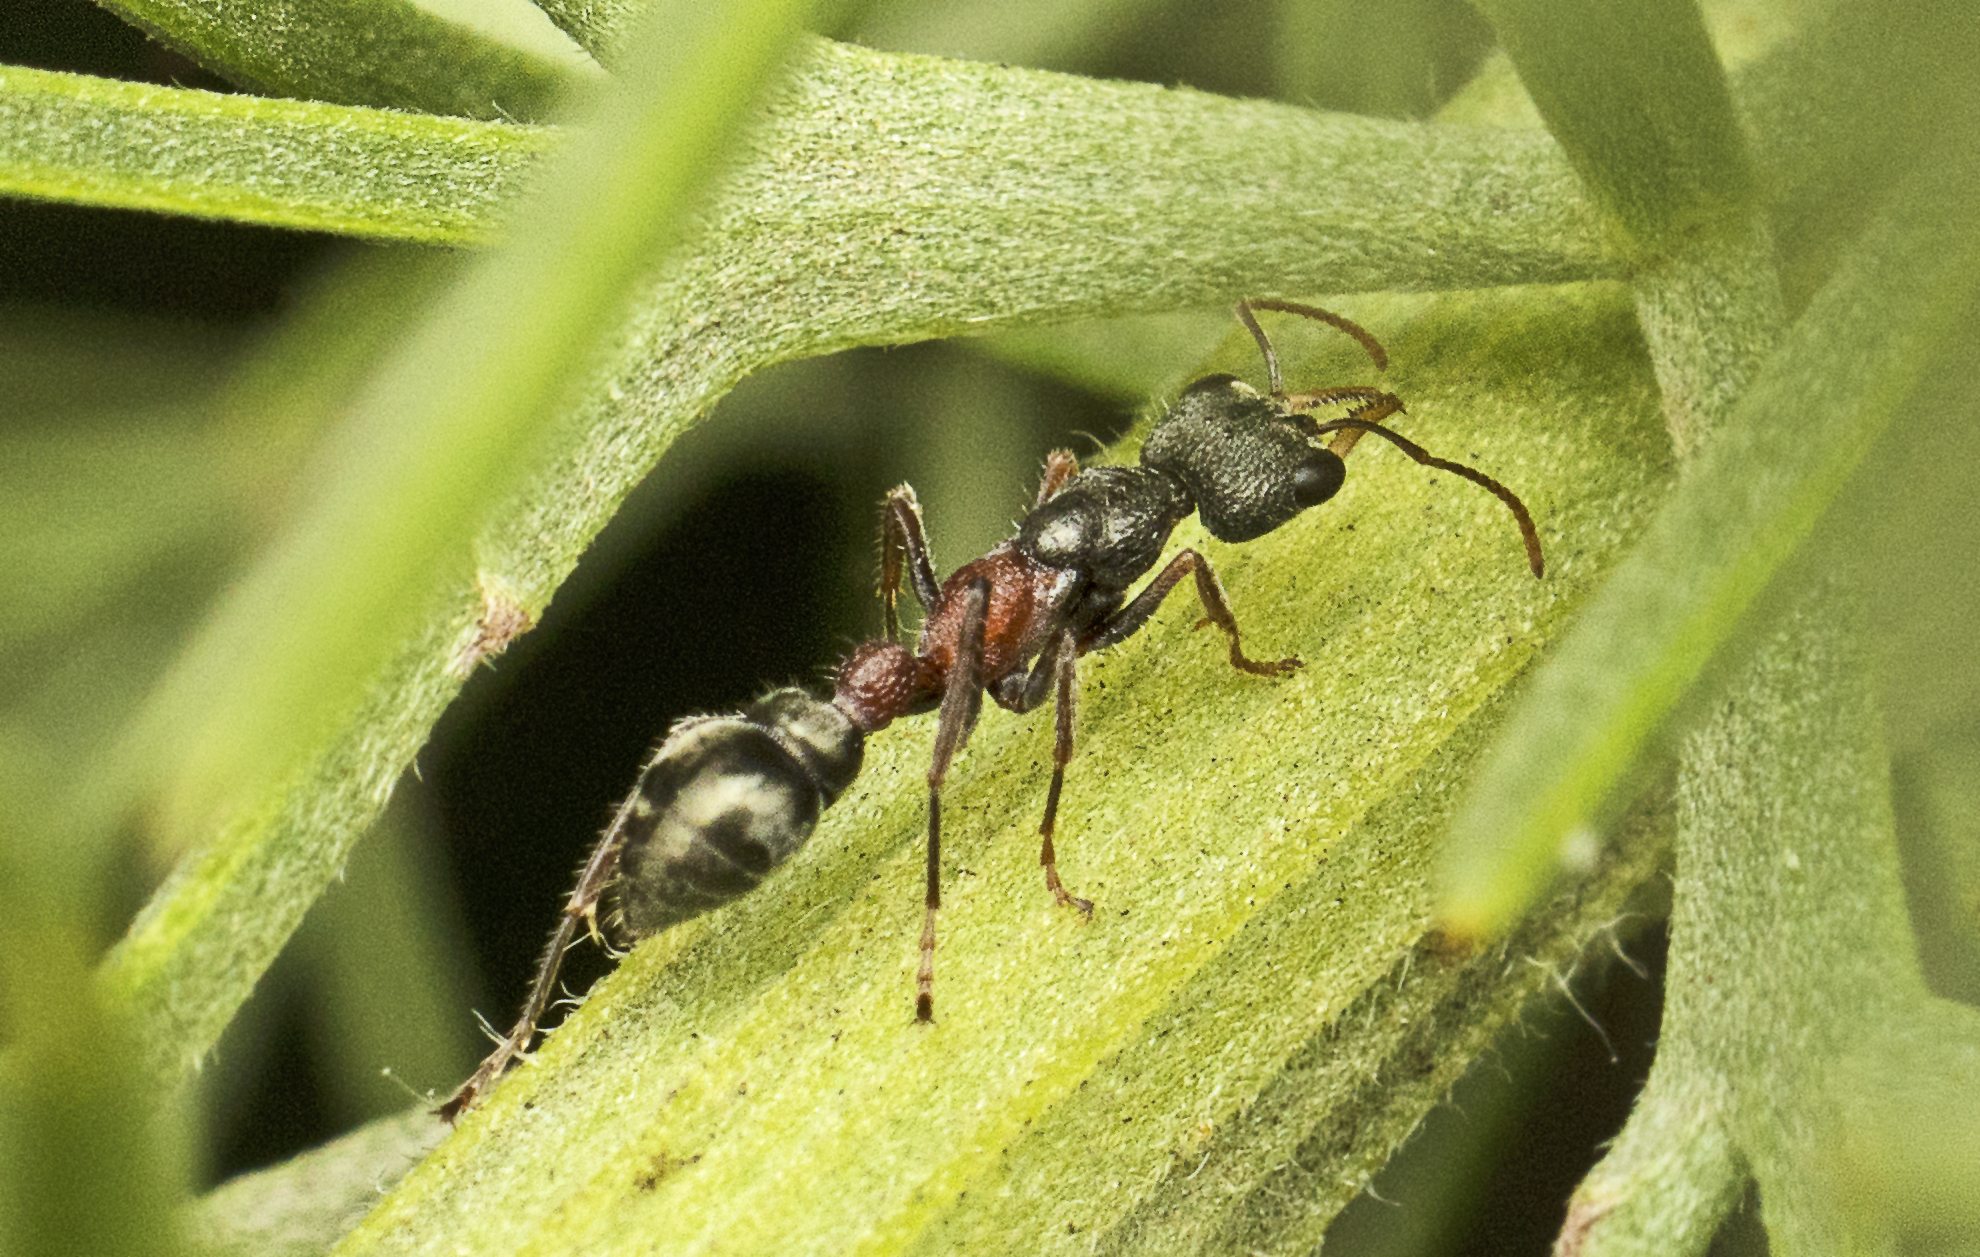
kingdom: Animalia
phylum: Arthropoda
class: Insecta
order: Hymenoptera
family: Formicidae
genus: Myrmecia
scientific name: Myrmecia urens
